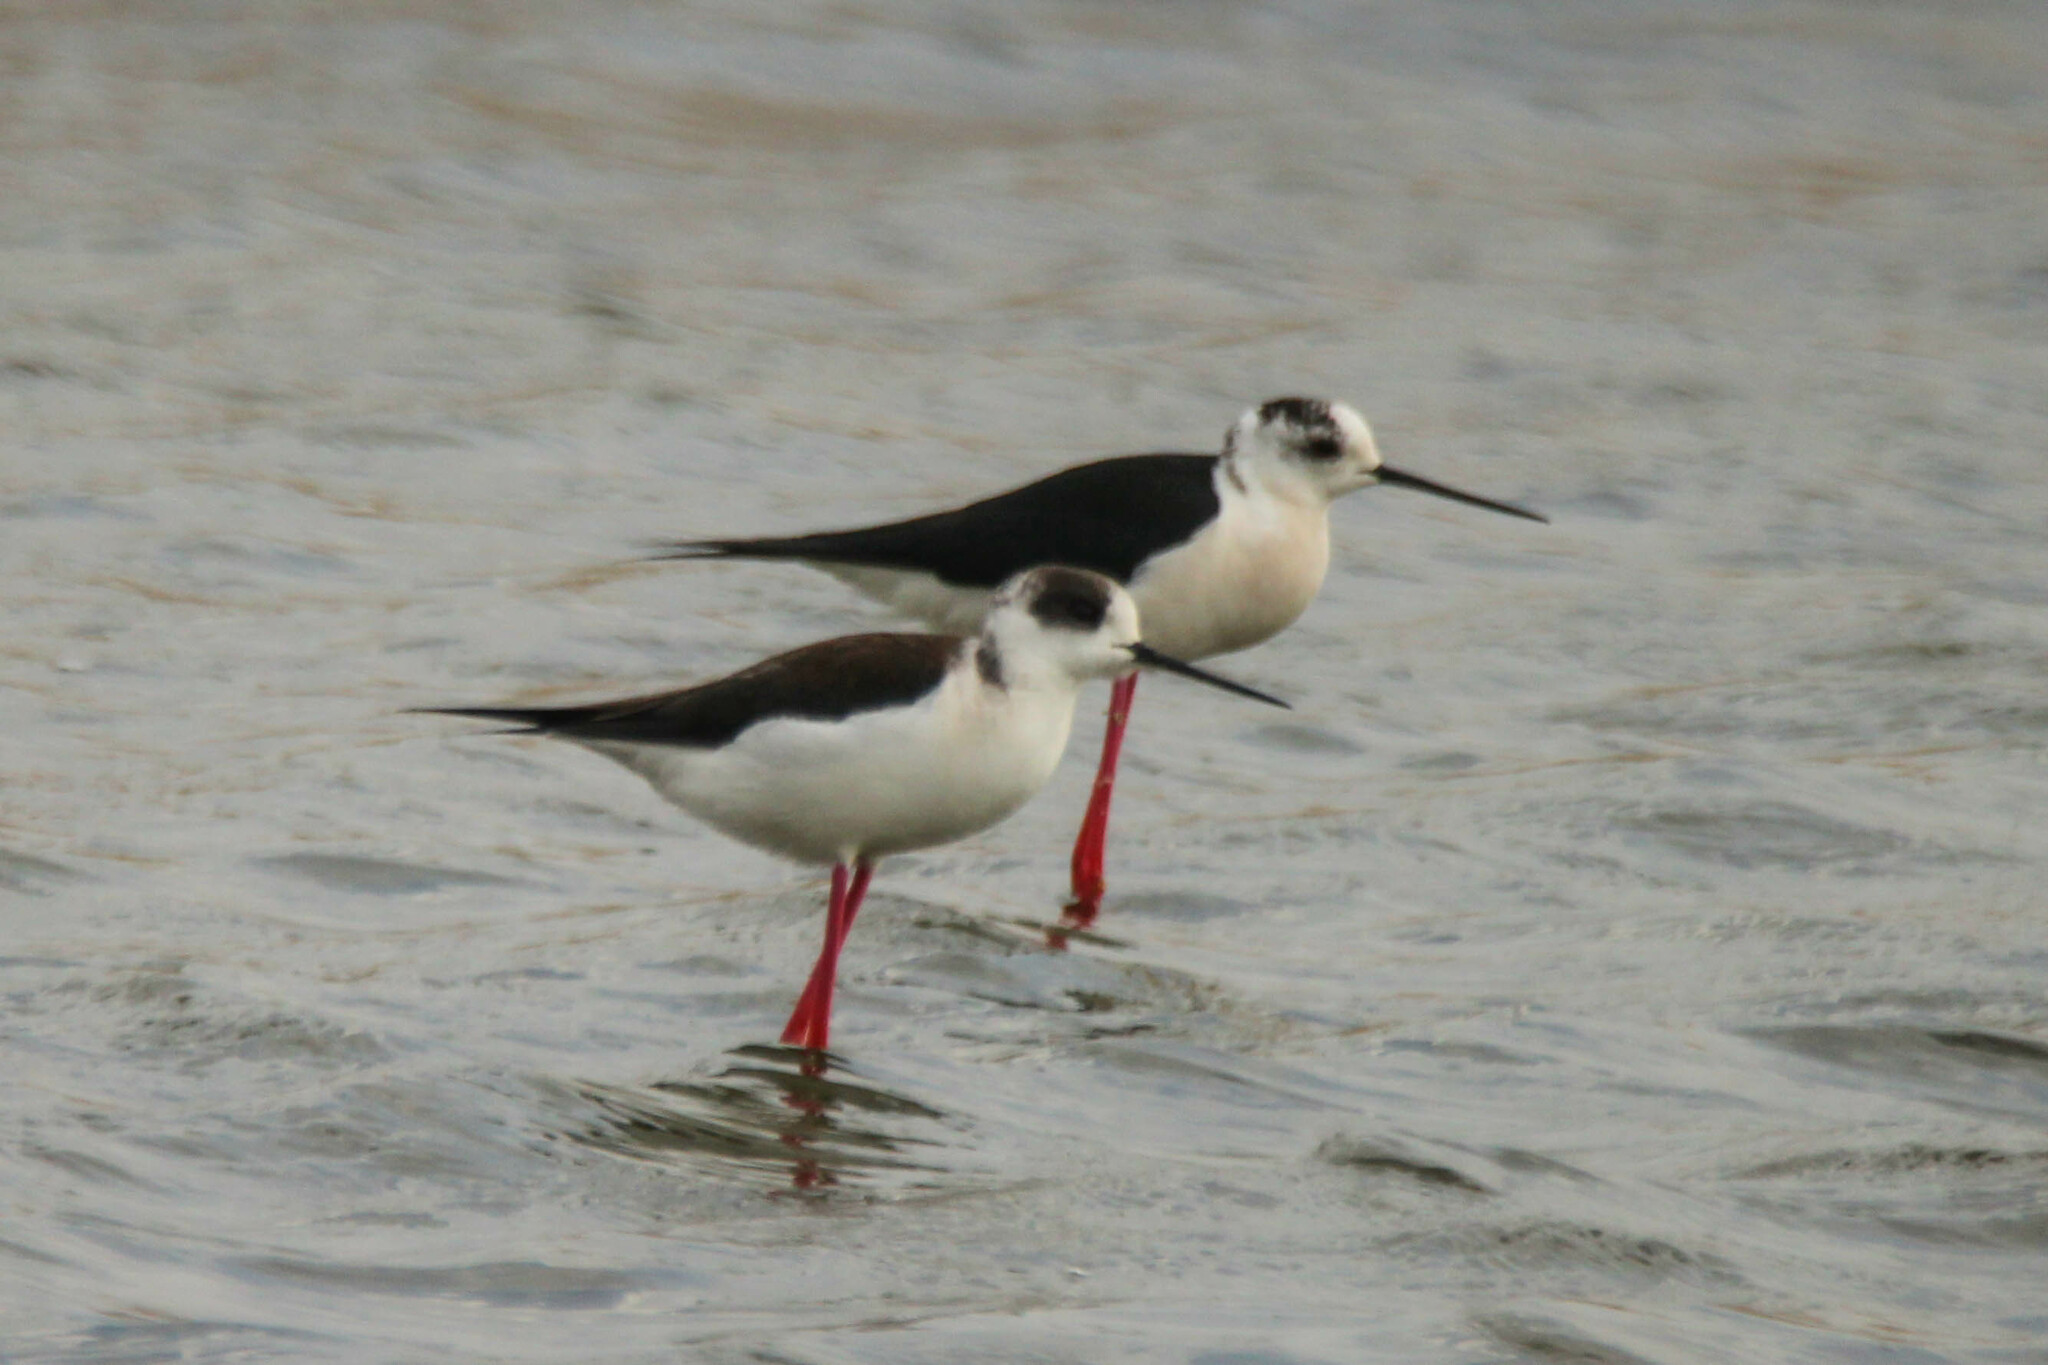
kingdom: Animalia
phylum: Chordata
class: Aves
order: Charadriiformes
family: Recurvirostridae
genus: Himantopus
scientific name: Himantopus himantopus
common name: Black-winged stilt
